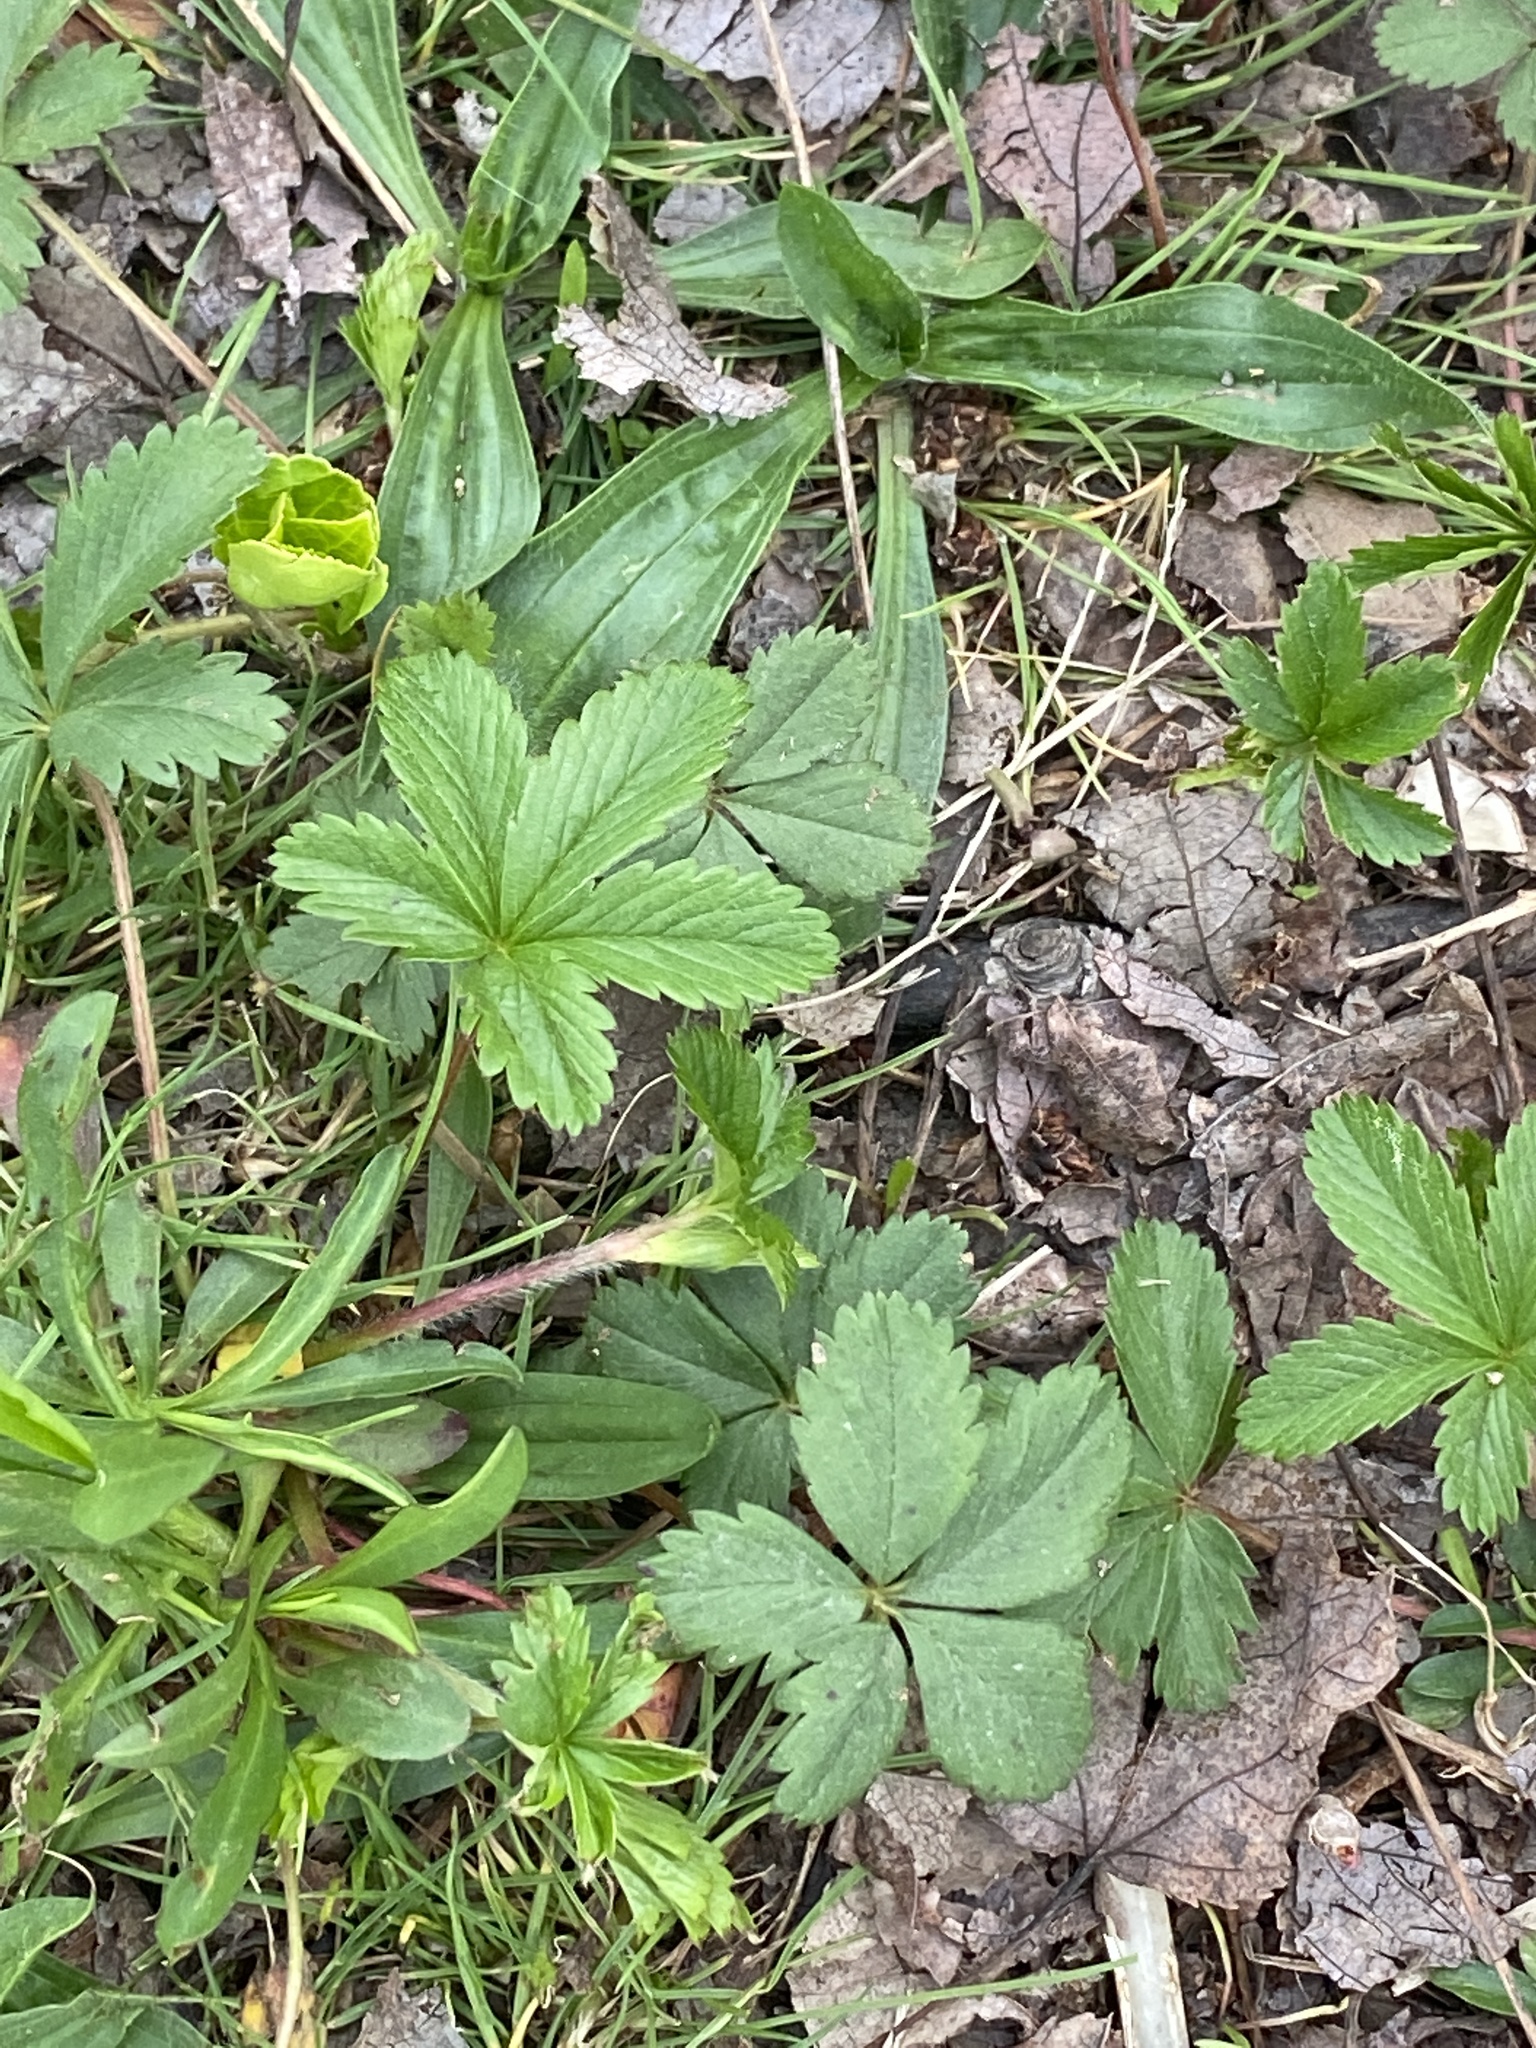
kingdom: Plantae
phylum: Tracheophyta
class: Magnoliopsida
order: Rosales
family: Rosaceae
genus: Potentilla
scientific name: Potentilla canadensis
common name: Canada cinquefoil
